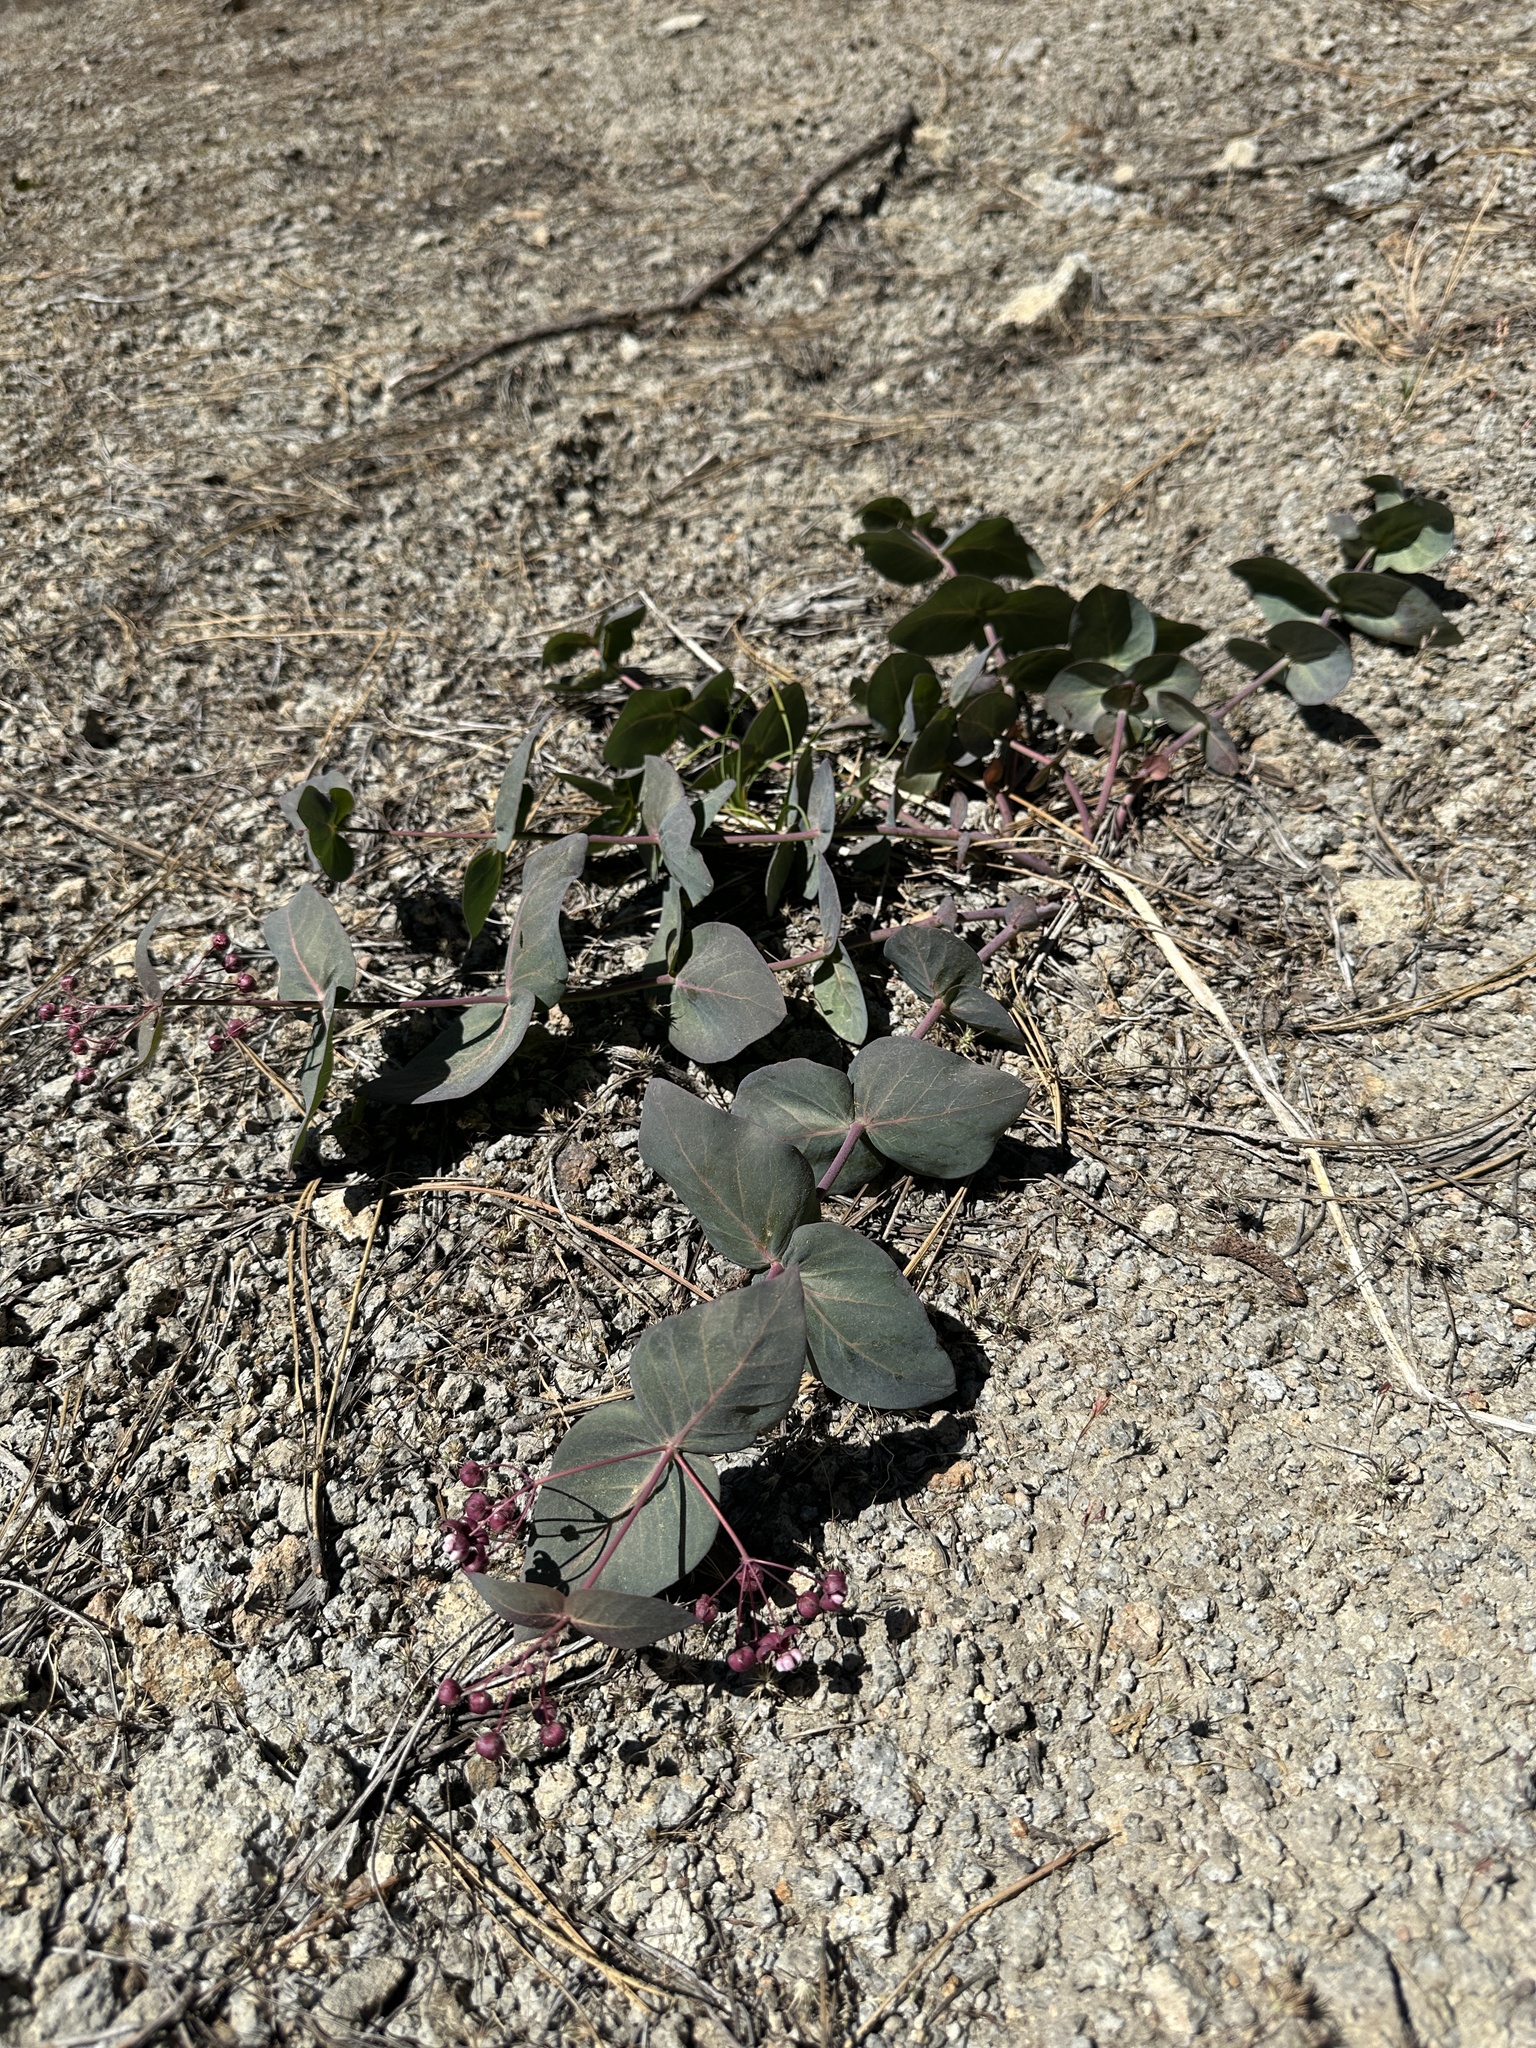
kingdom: Plantae
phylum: Tracheophyta
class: Magnoliopsida
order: Gentianales
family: Apocynaceae
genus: Asclepias
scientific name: Asclepias cordifolia
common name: Purple milkweed
